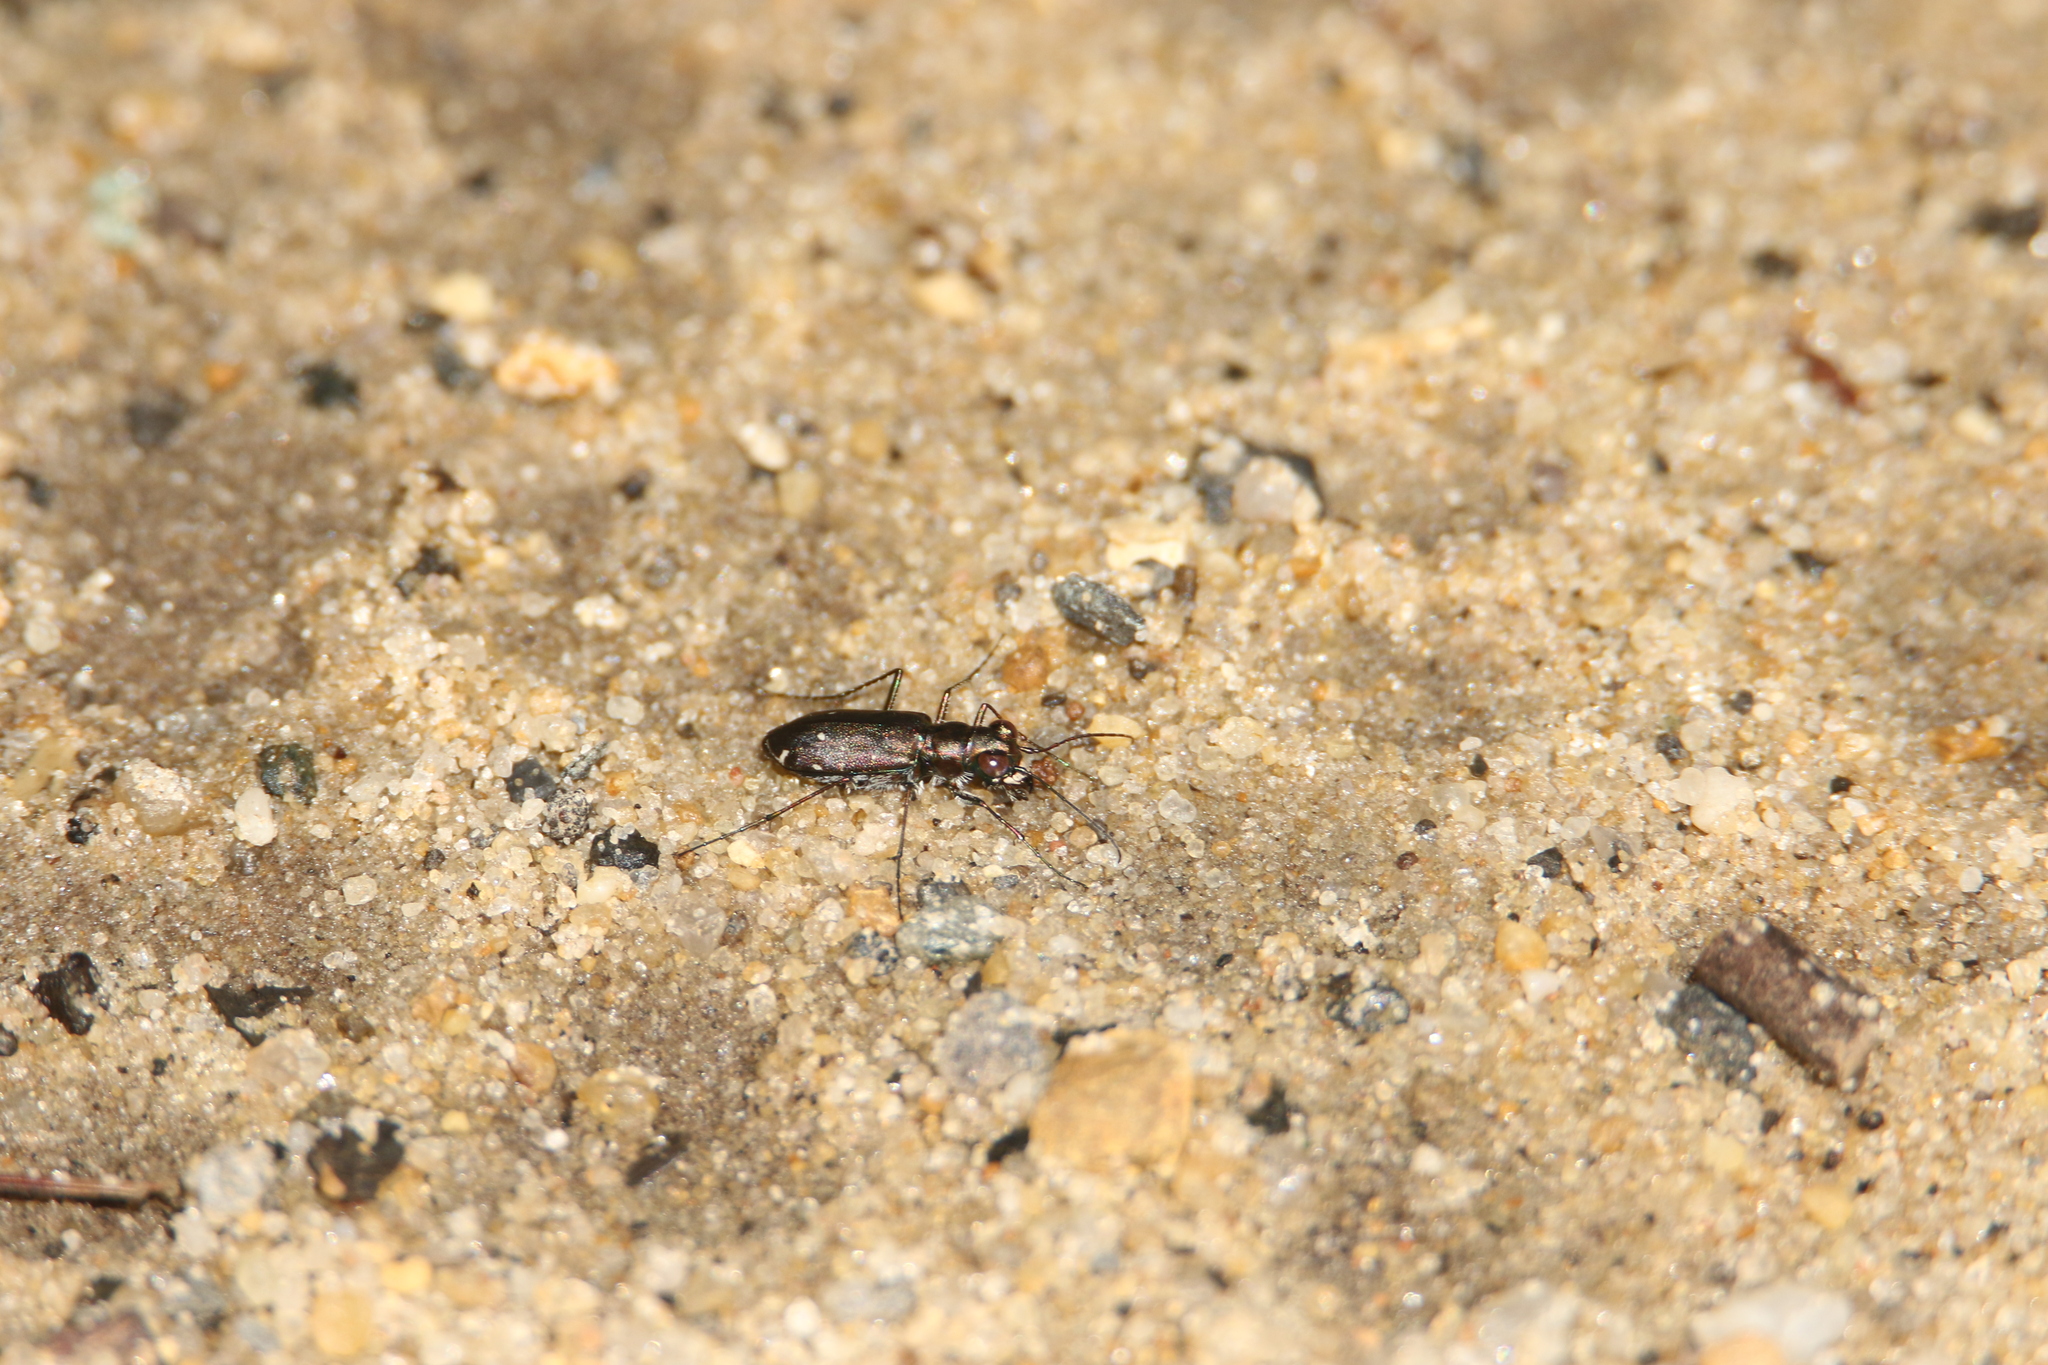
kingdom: Animalia
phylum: Arthropoda
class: Insecta
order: Coleoptera
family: Carabidae
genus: Cicindela
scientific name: Cicindela punctulata
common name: Punctured tiger beetle
